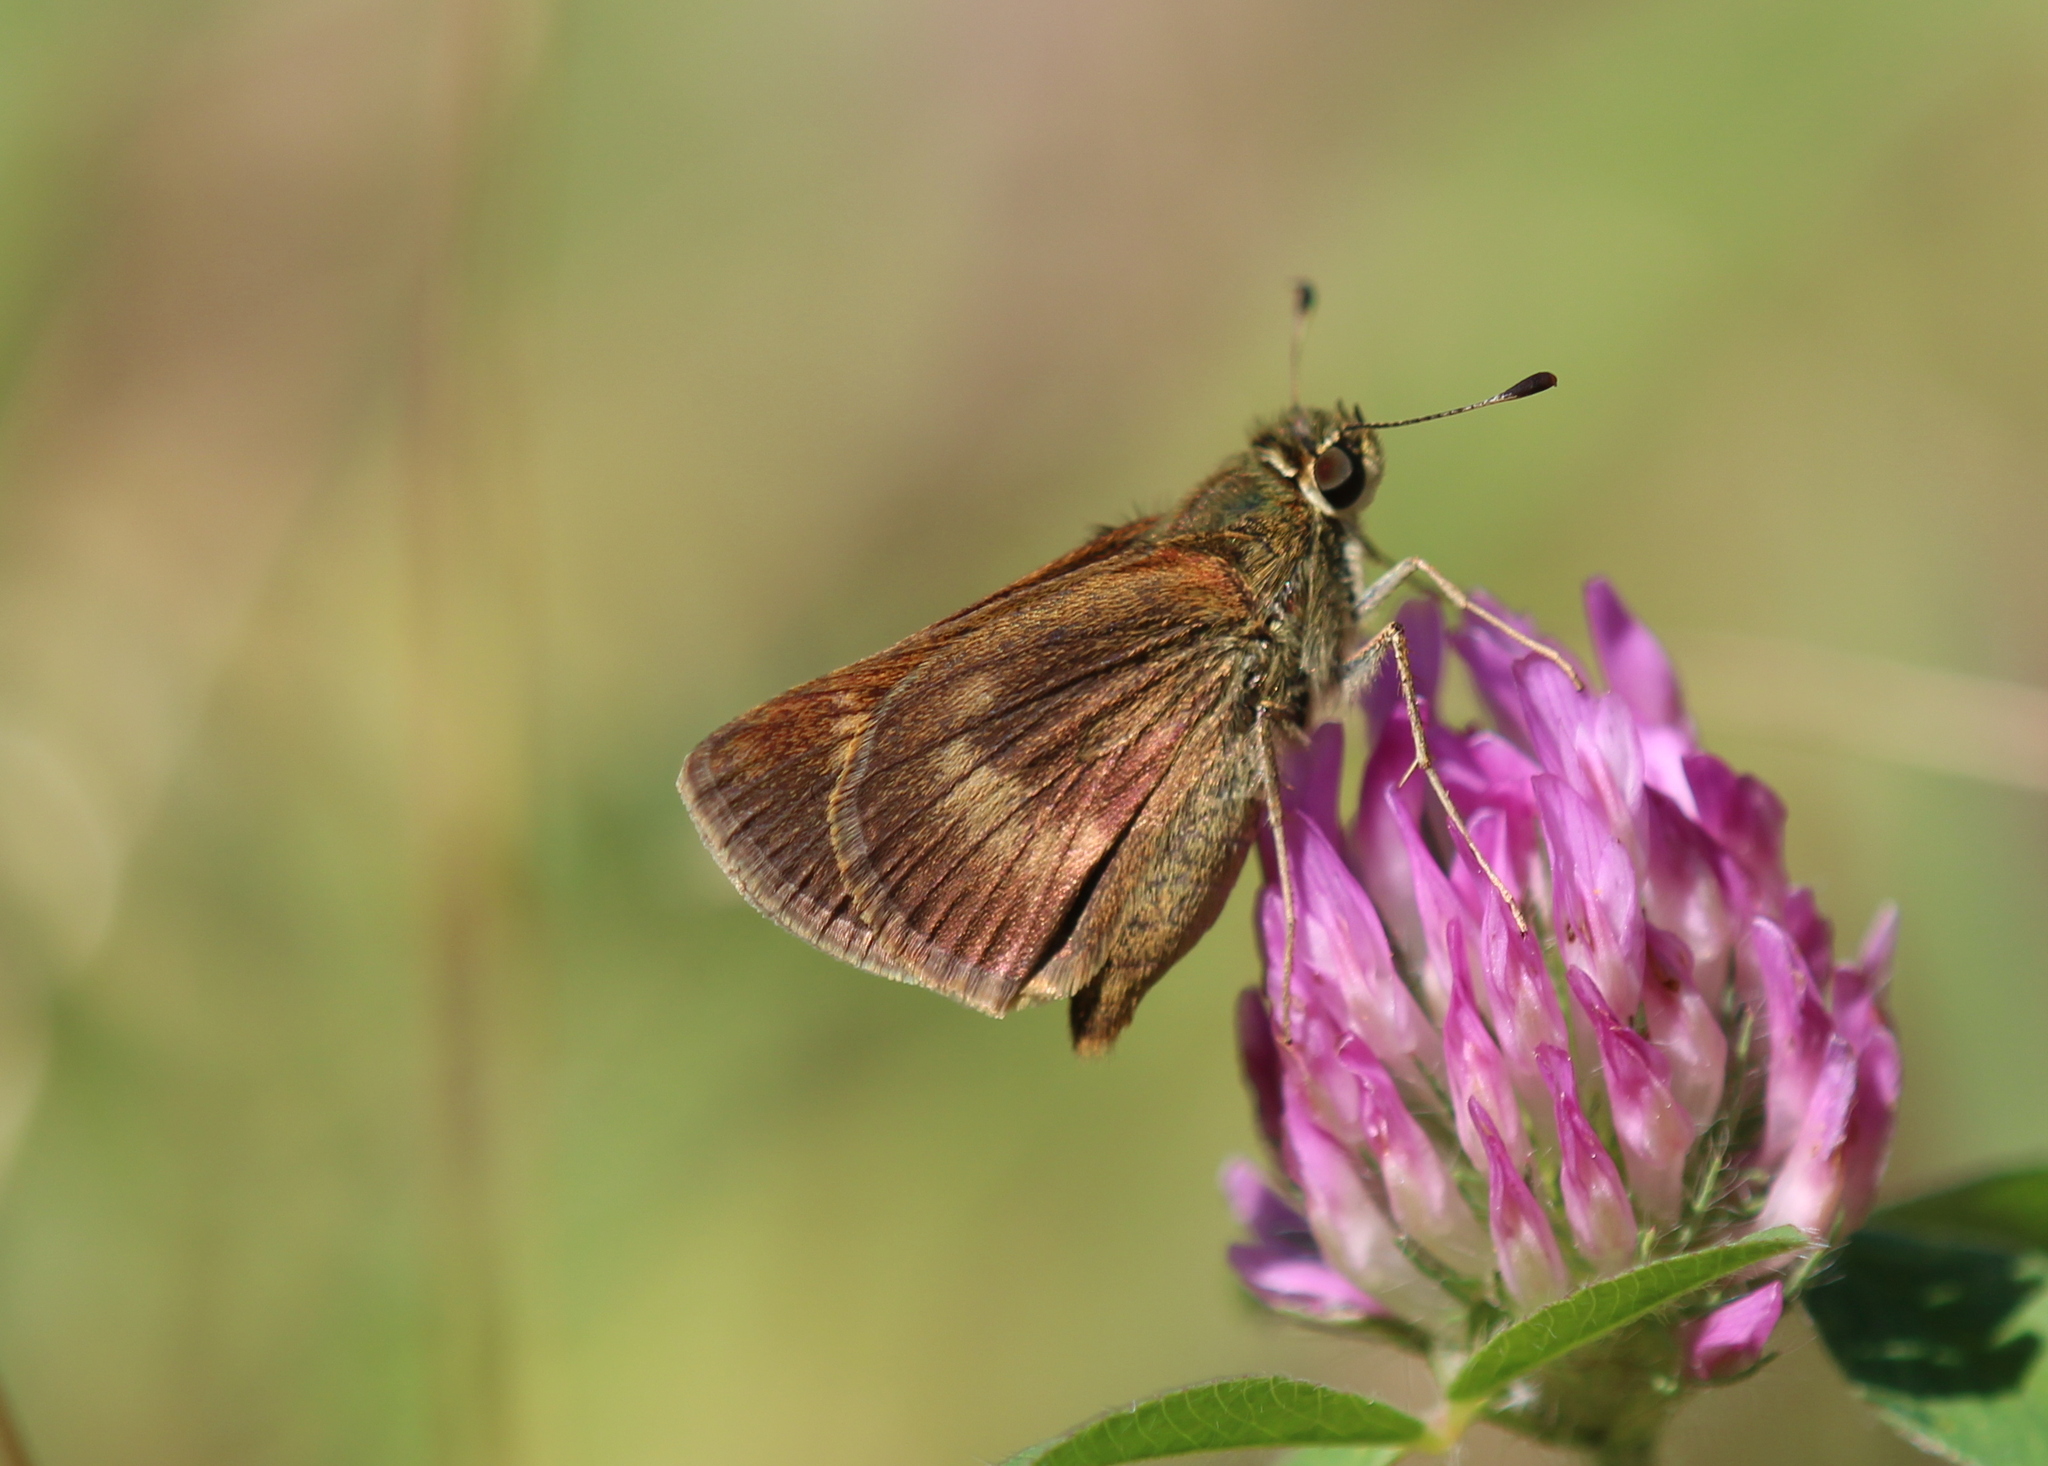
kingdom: Animalia
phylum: Arthropoda
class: Insecta
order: Lepidoptera
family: Hesperiidae
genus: Polites
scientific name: Polites egeremet
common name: Northern broken-dash
